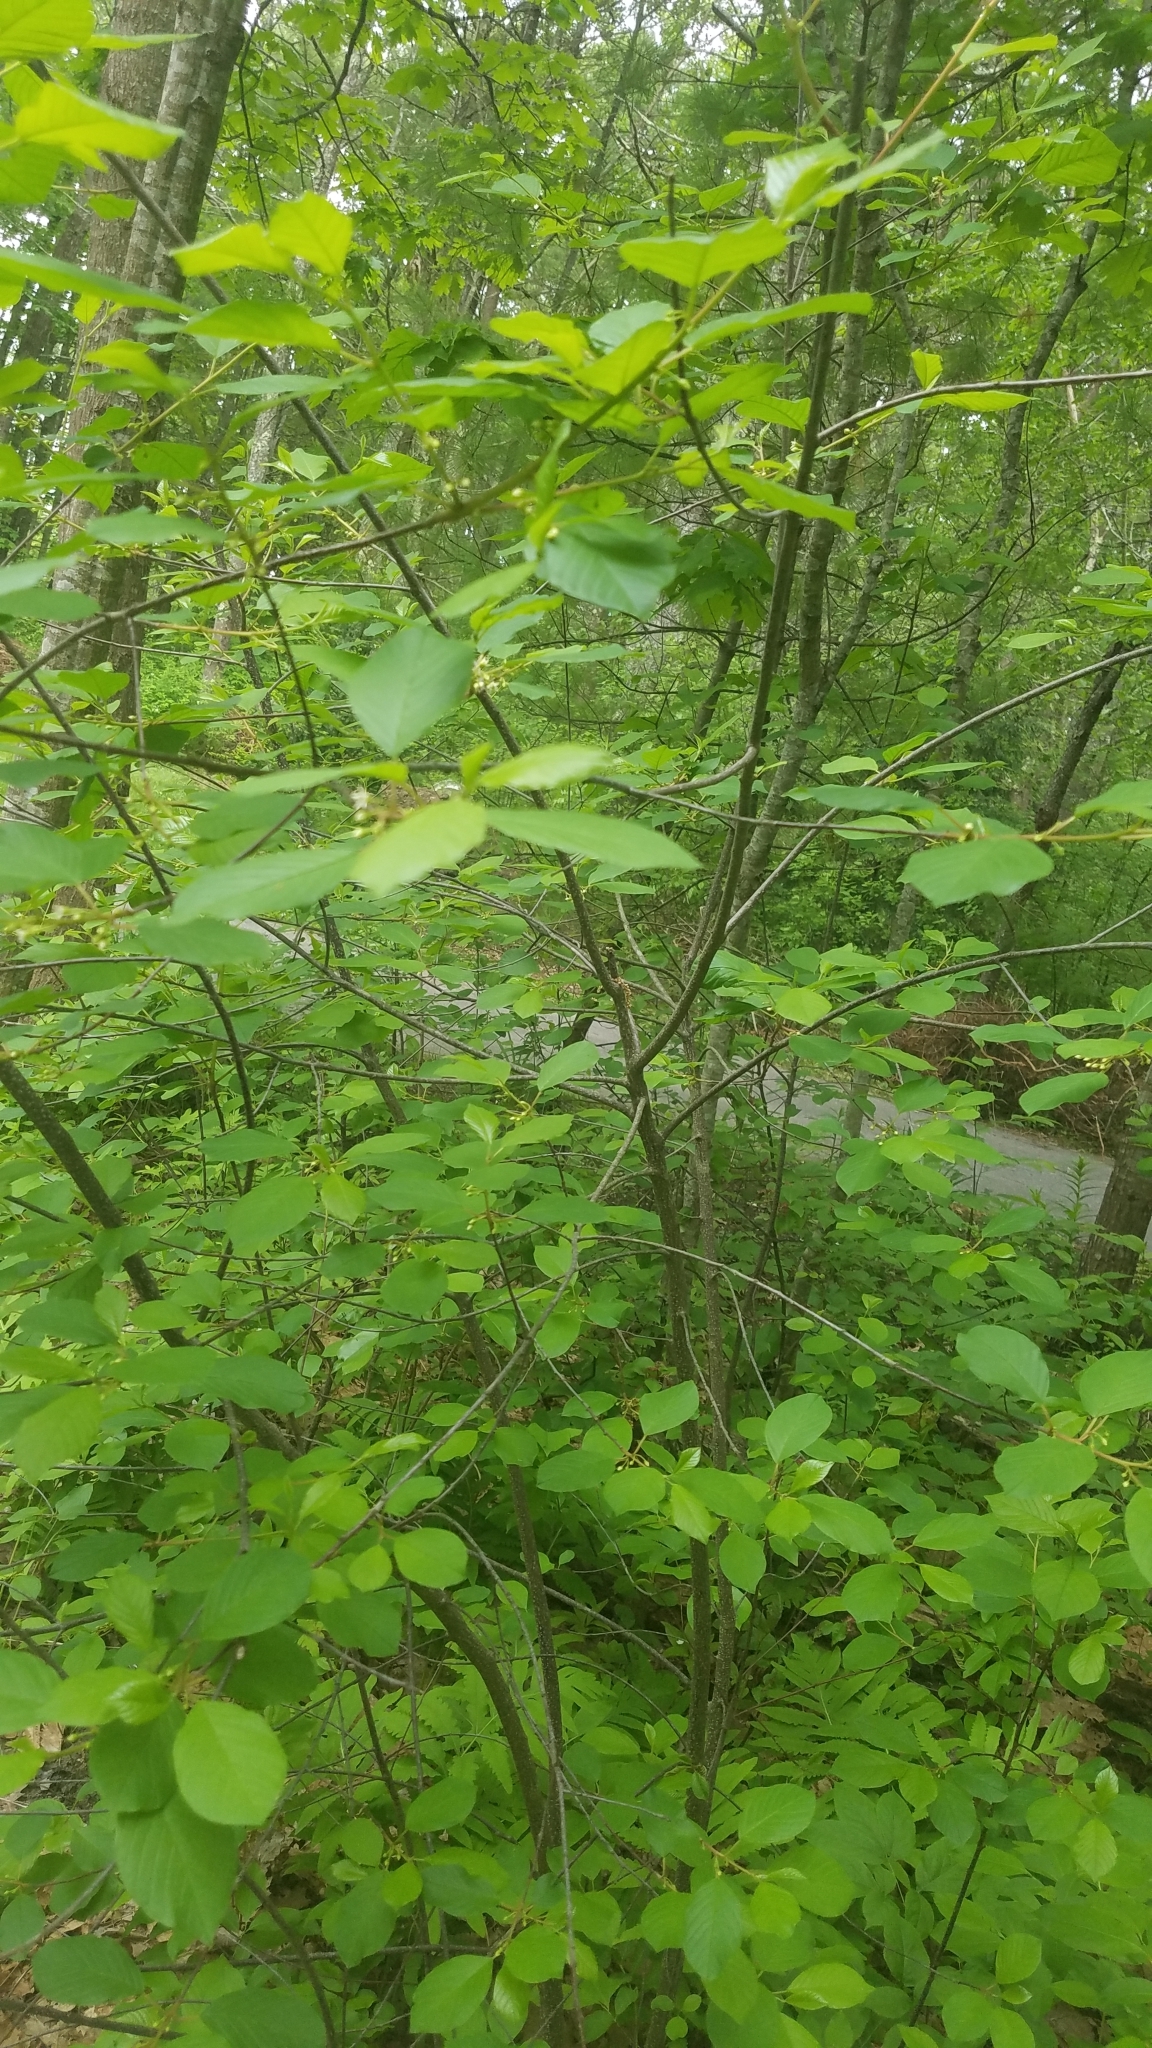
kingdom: Plantae
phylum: Tracheophyta
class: Magnoliopsida
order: Rosales
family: Rhamnaceae
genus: Frangula
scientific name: Frangula alnus
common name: Alder buckthorn
